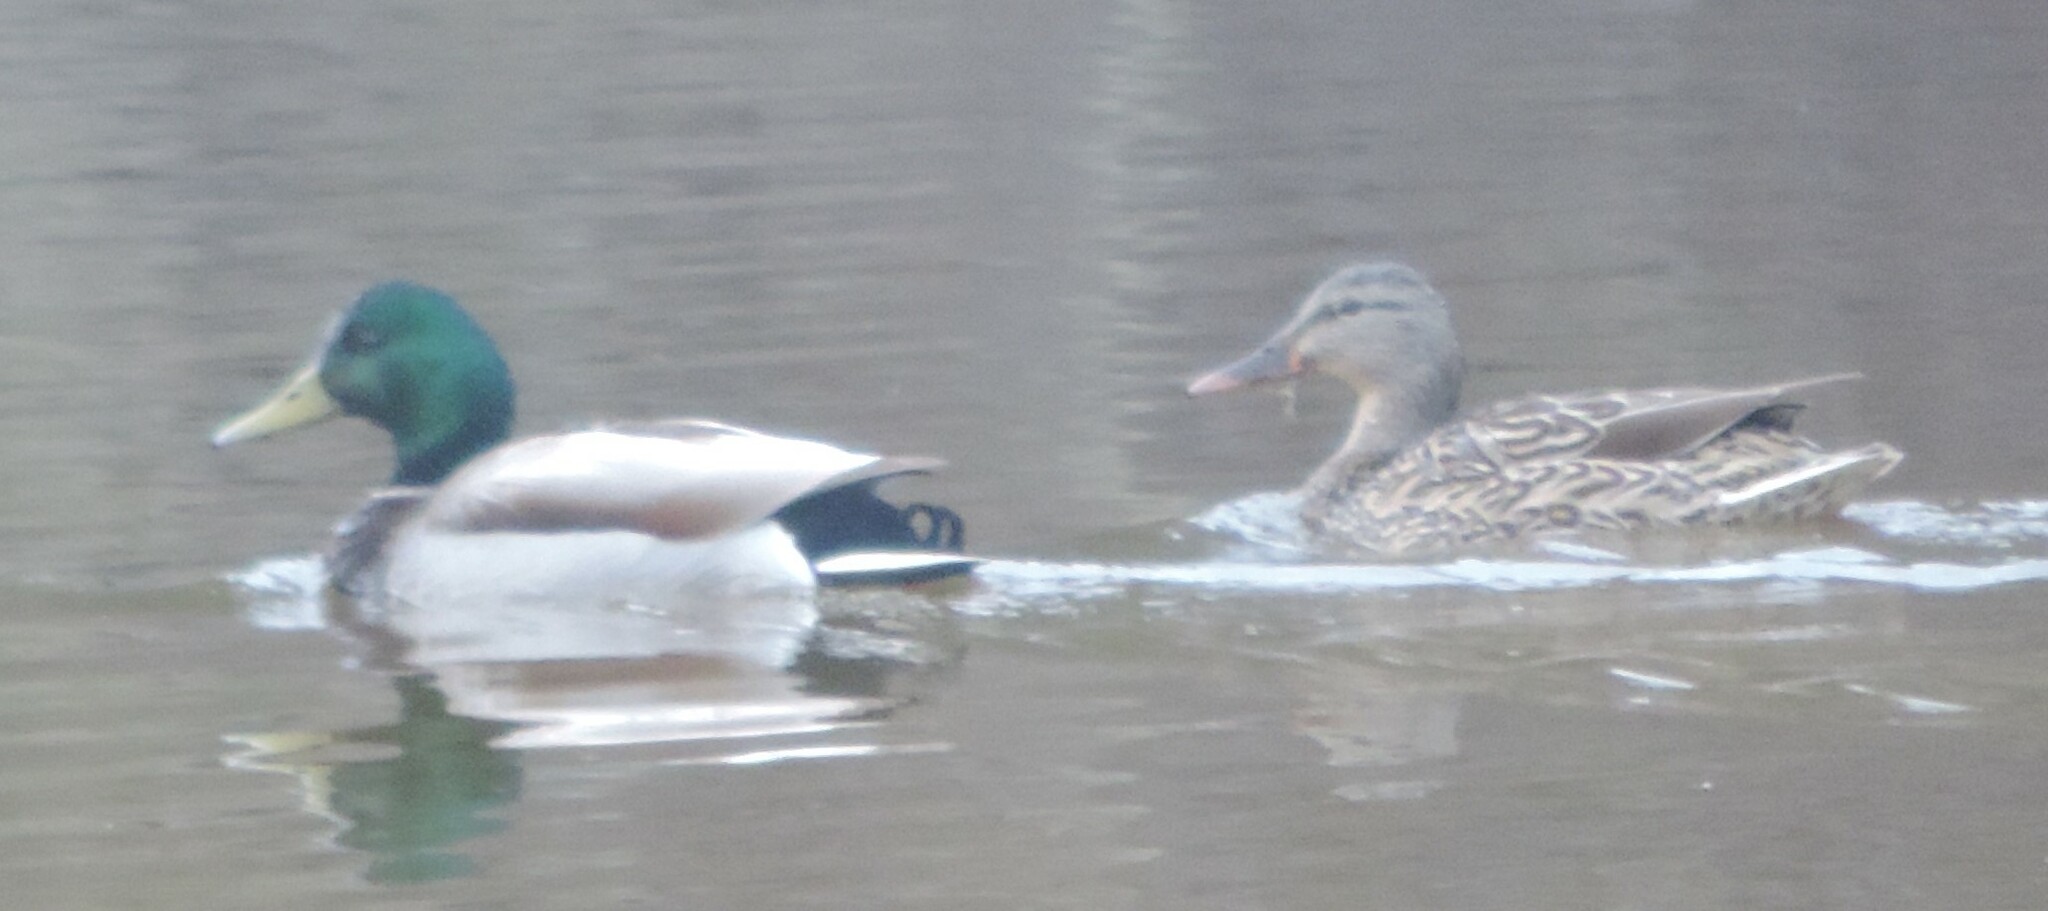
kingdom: Animalia
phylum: Chordata
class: Aves
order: Anseriformes
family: Anatidae
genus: Anas
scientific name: Anas platyrhynchos
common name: Mallard
